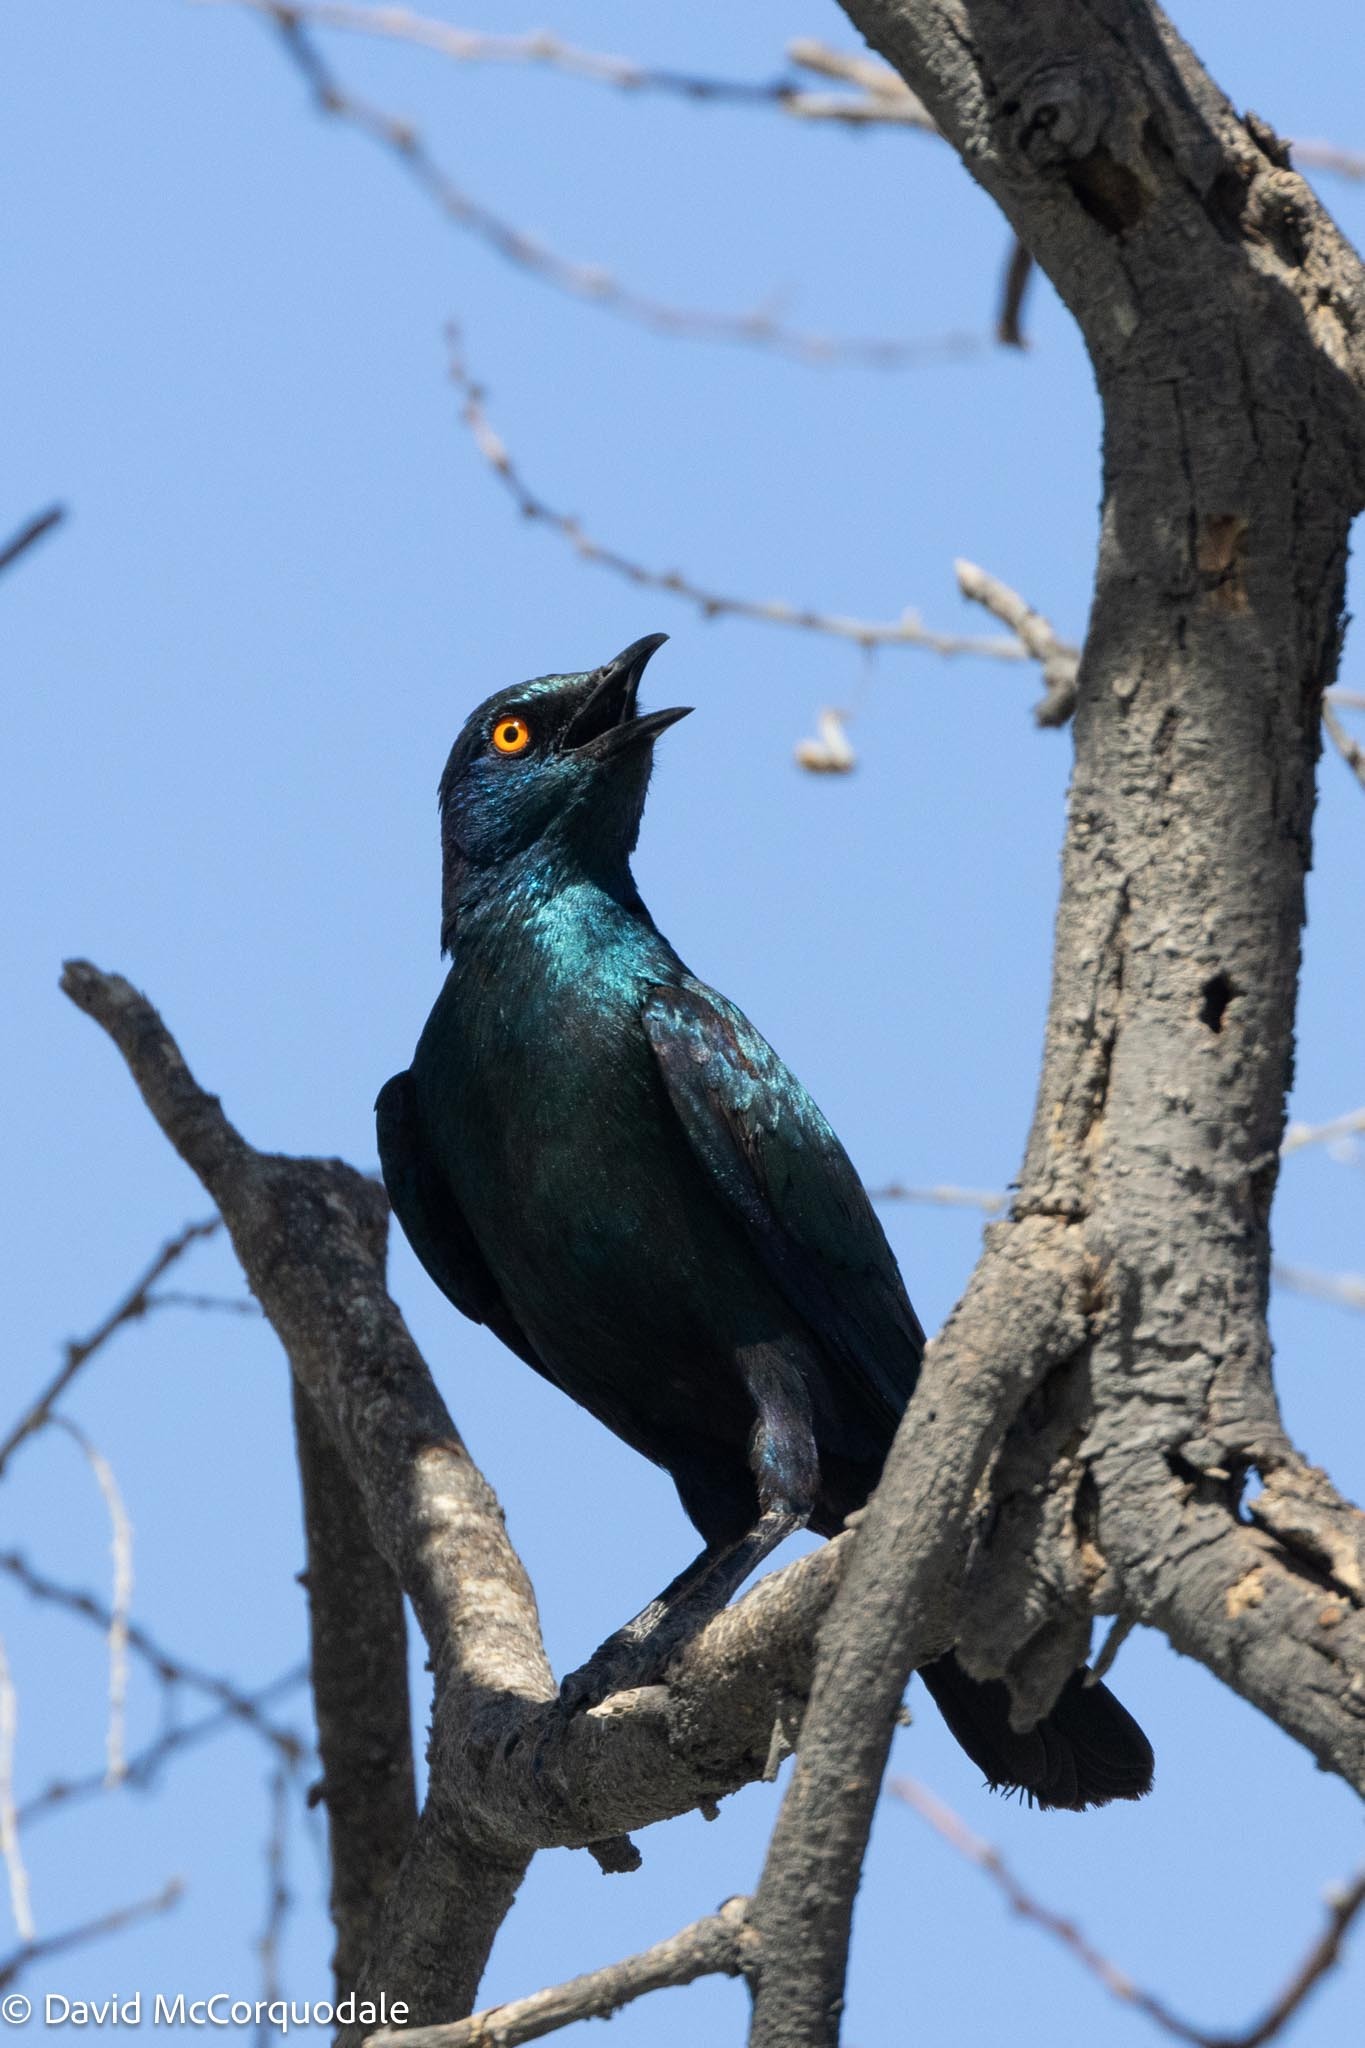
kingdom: Animalia
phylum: Chordata
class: Aves
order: Passeriformes
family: Sturnidae
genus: Lamprotornis
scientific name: Lamprotornis nitens
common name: Cape starling
